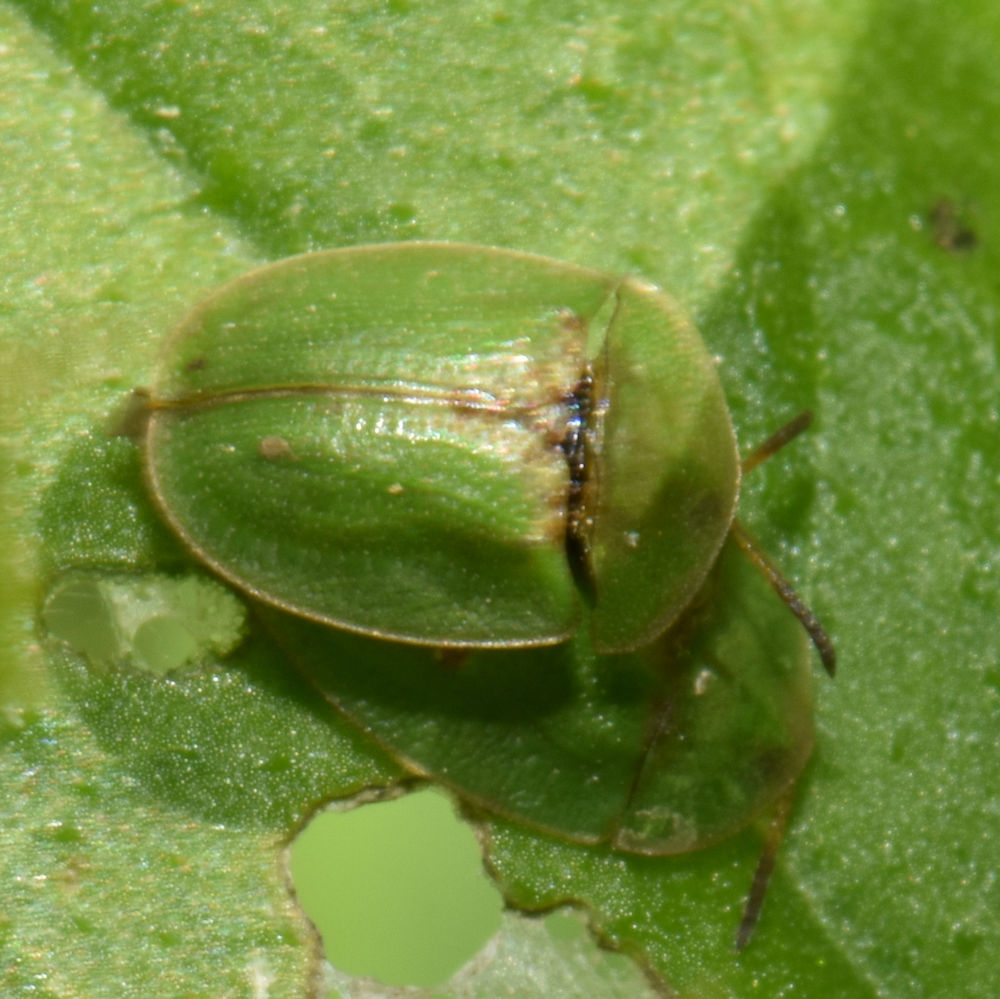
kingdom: Animalia
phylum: Arthropoda
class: Insecta
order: Coleoptera
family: Chrysomelidae
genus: Cassida
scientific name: Cassida rubiginosa
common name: Thistle tortoise beetle
